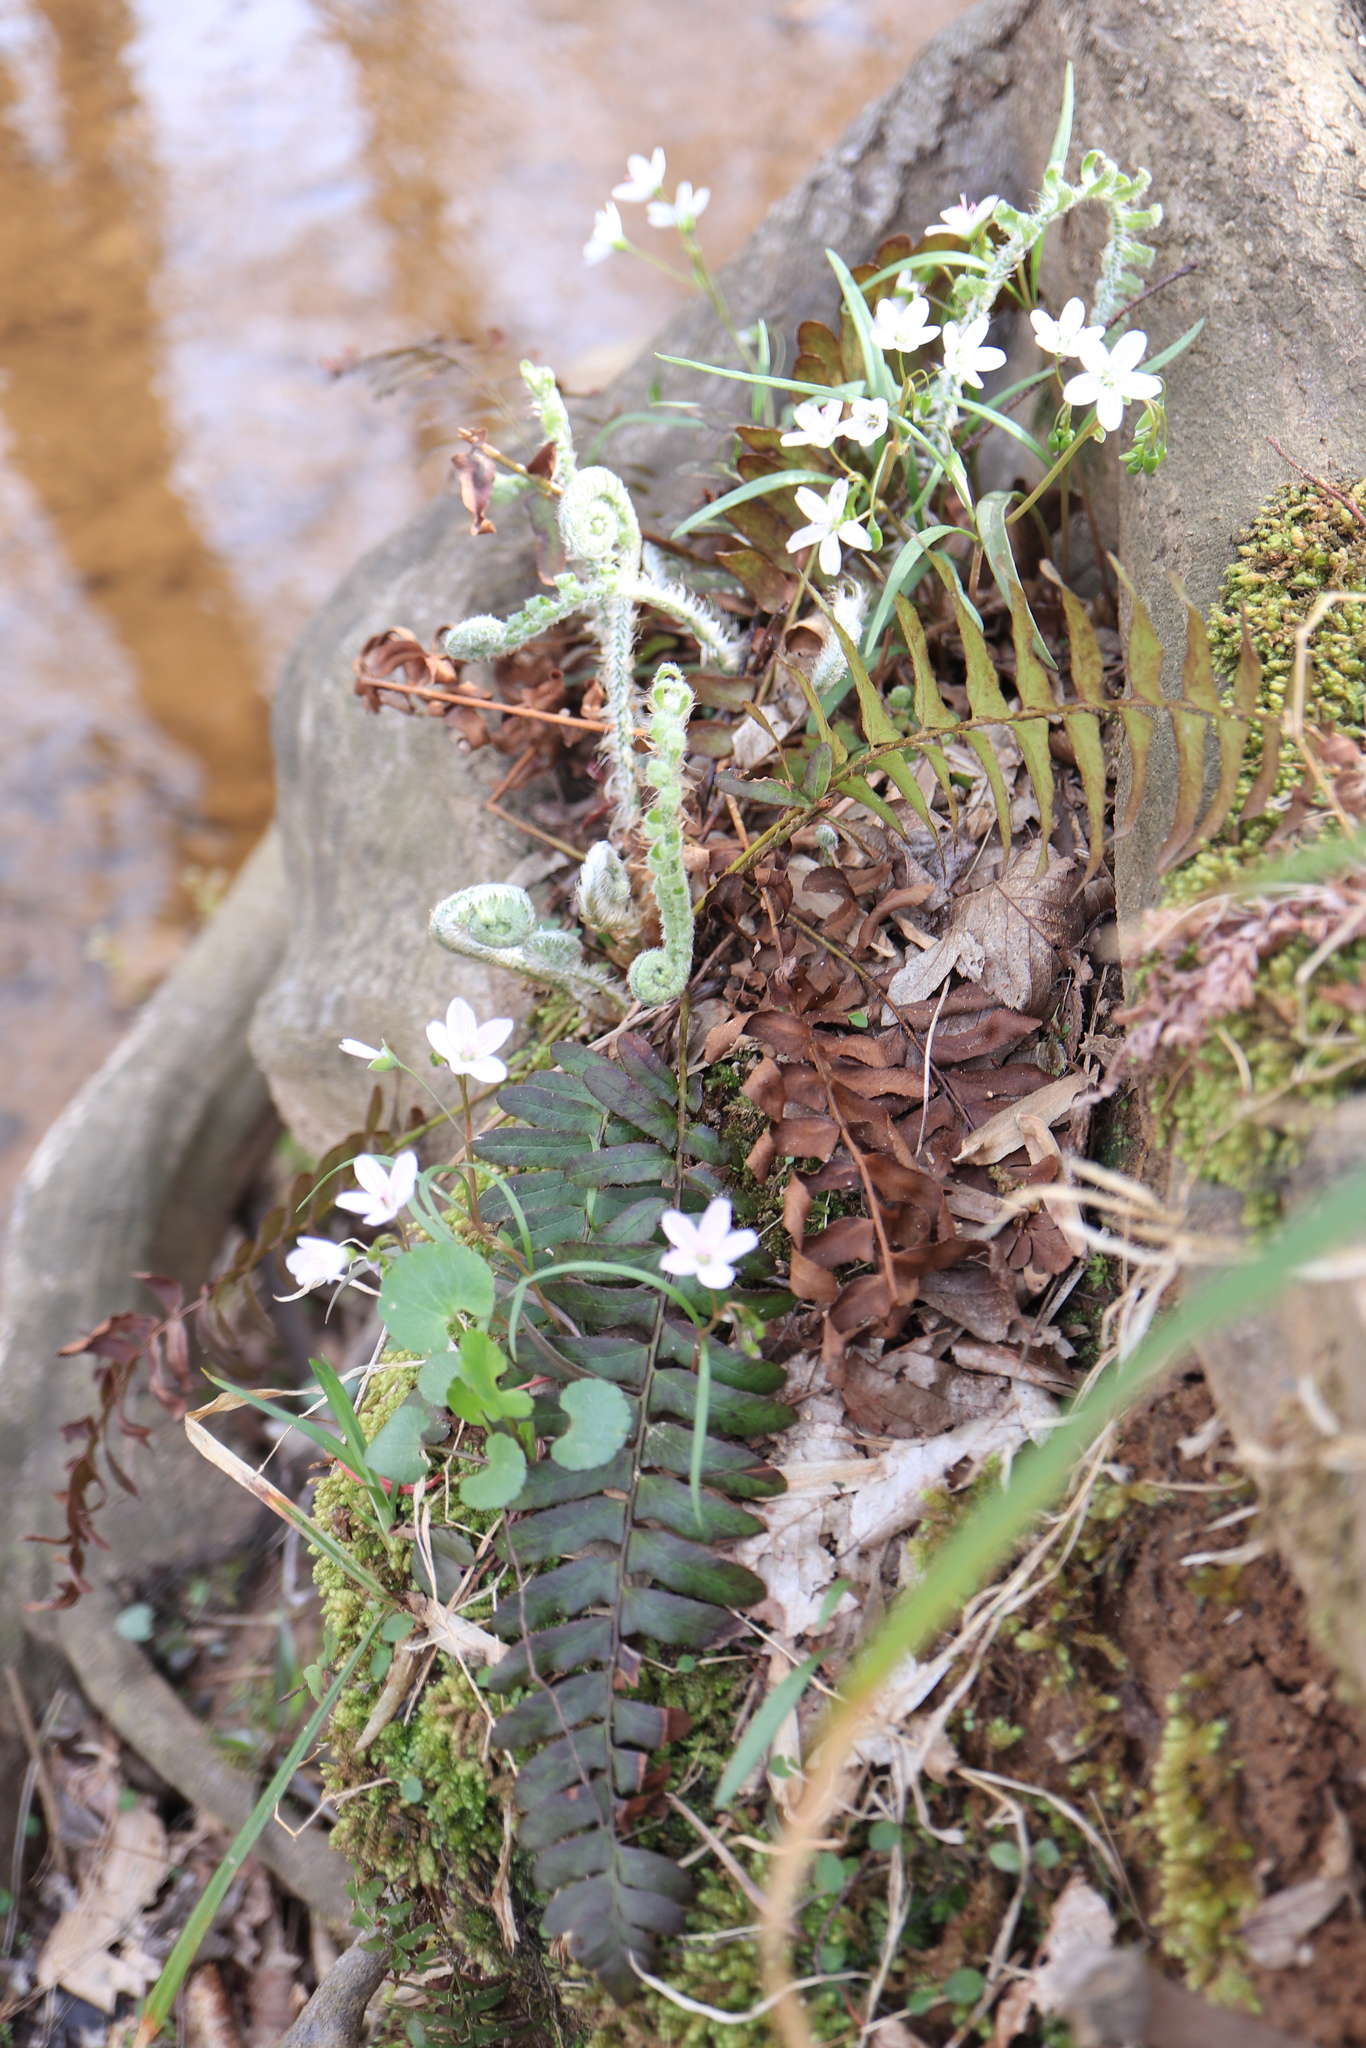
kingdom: Plantae
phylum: Tracheophyta
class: Polypodiopsida
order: Polypodiales
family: Dryopteridaceae
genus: Polystichum
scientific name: Polystichum acrostichoides
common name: Christmas fern
